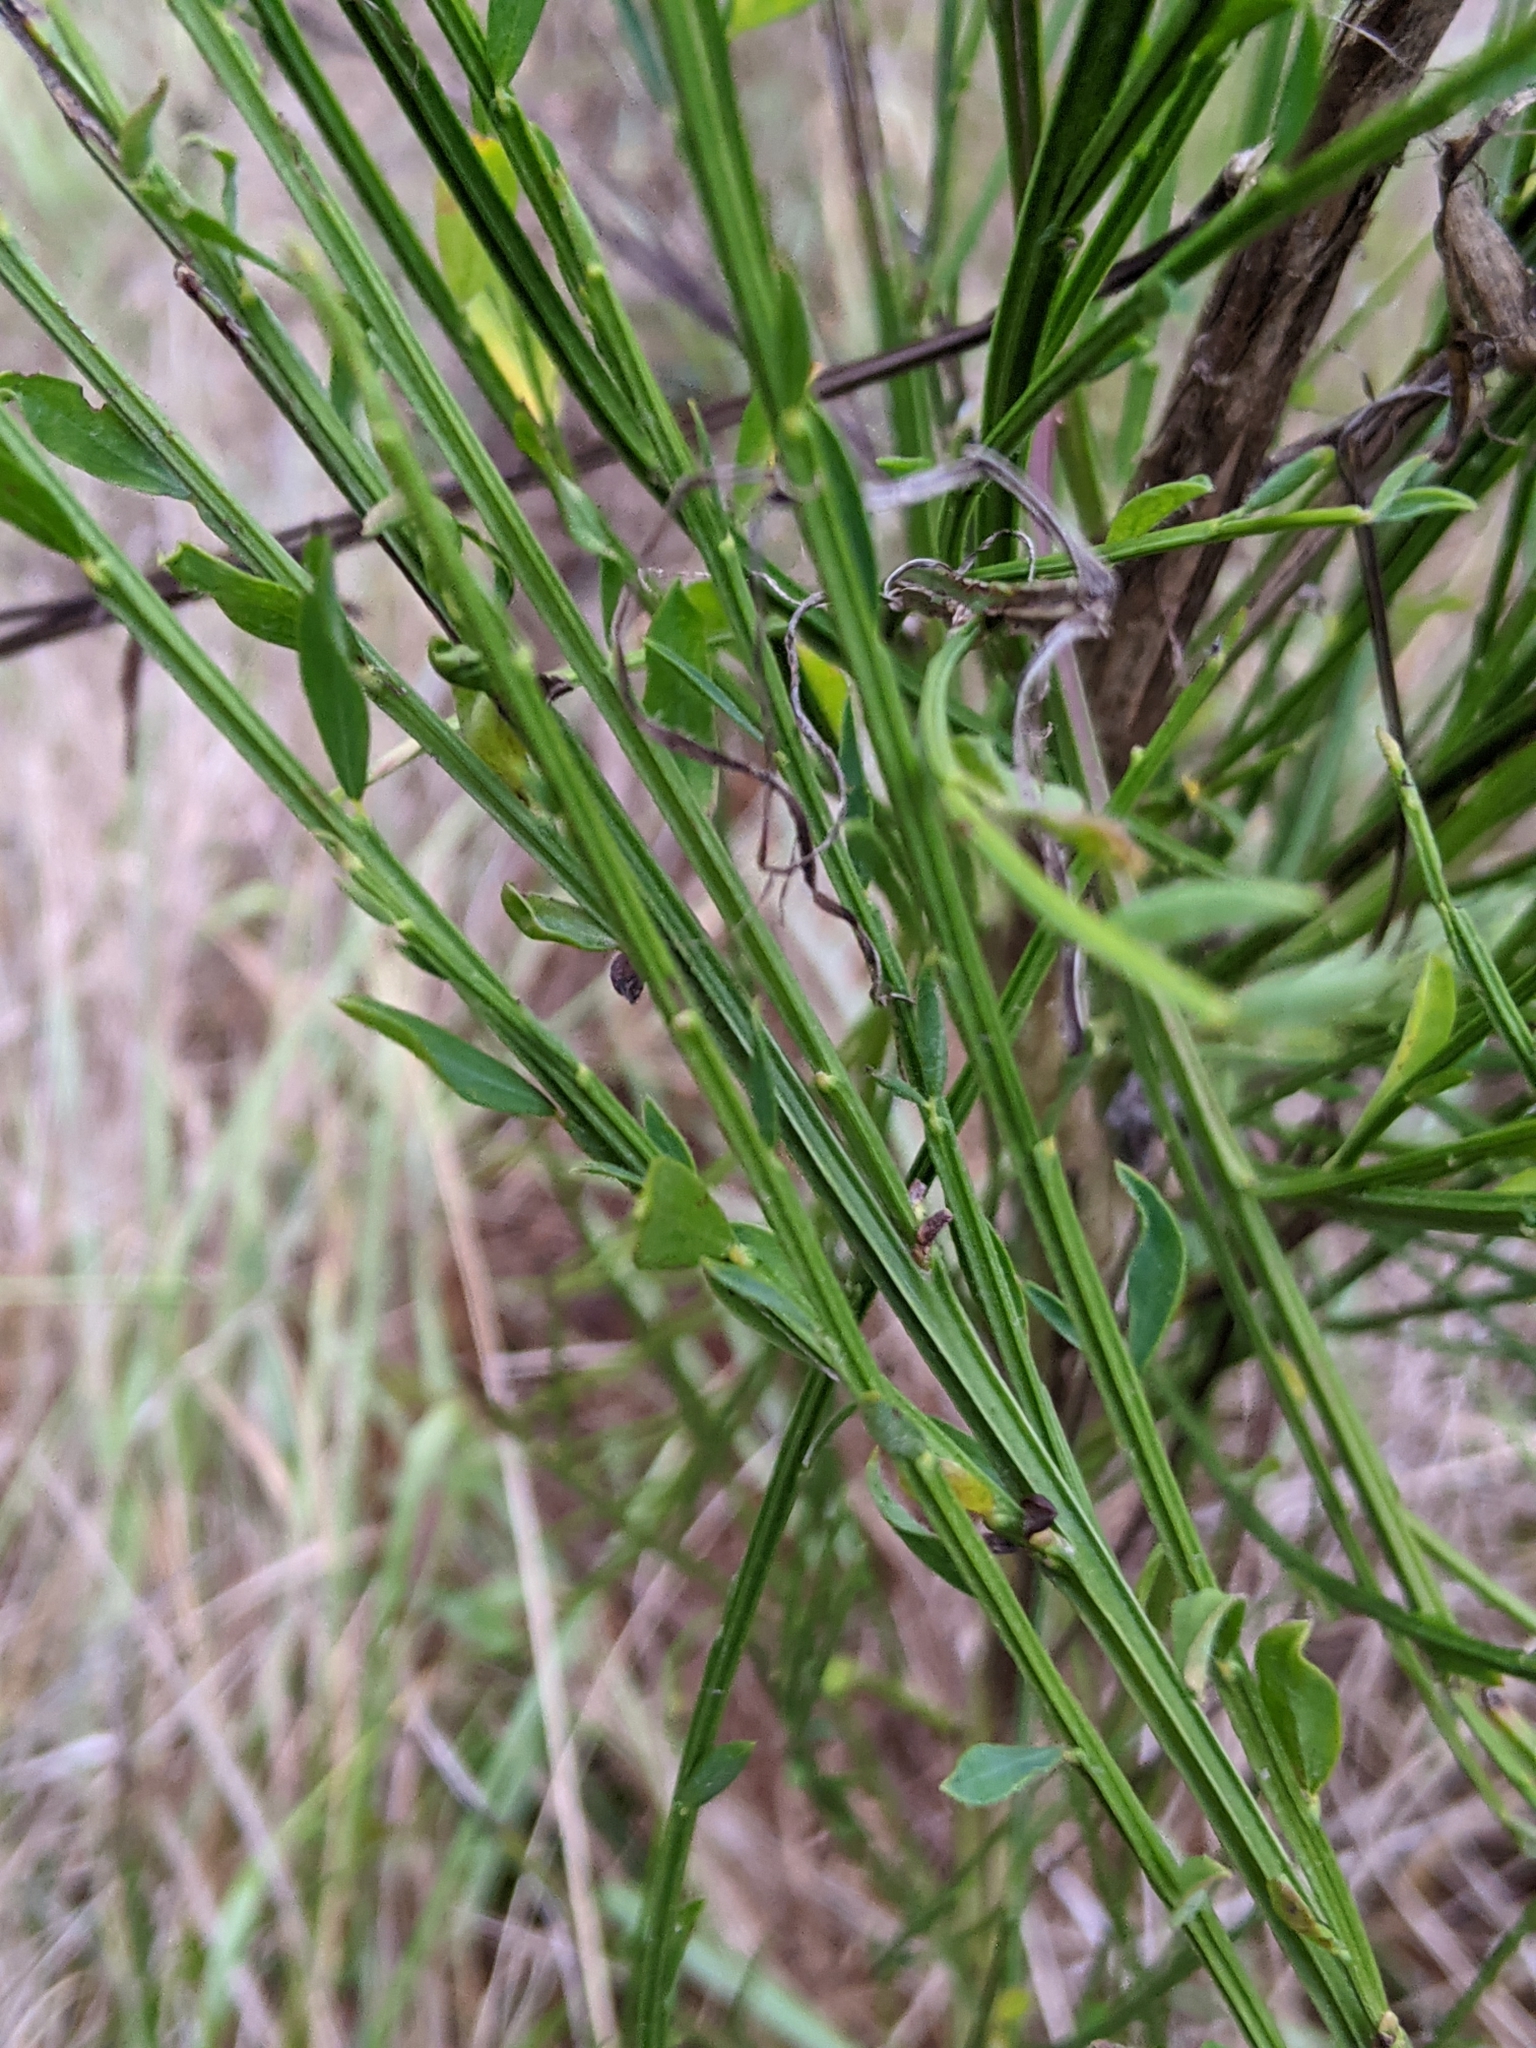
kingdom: Plantae
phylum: Tracheophyta
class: Magnoliopsida
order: Fabales
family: Fabaceae
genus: Cytisus
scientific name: Cytisus scoparius
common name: Scotch broom
